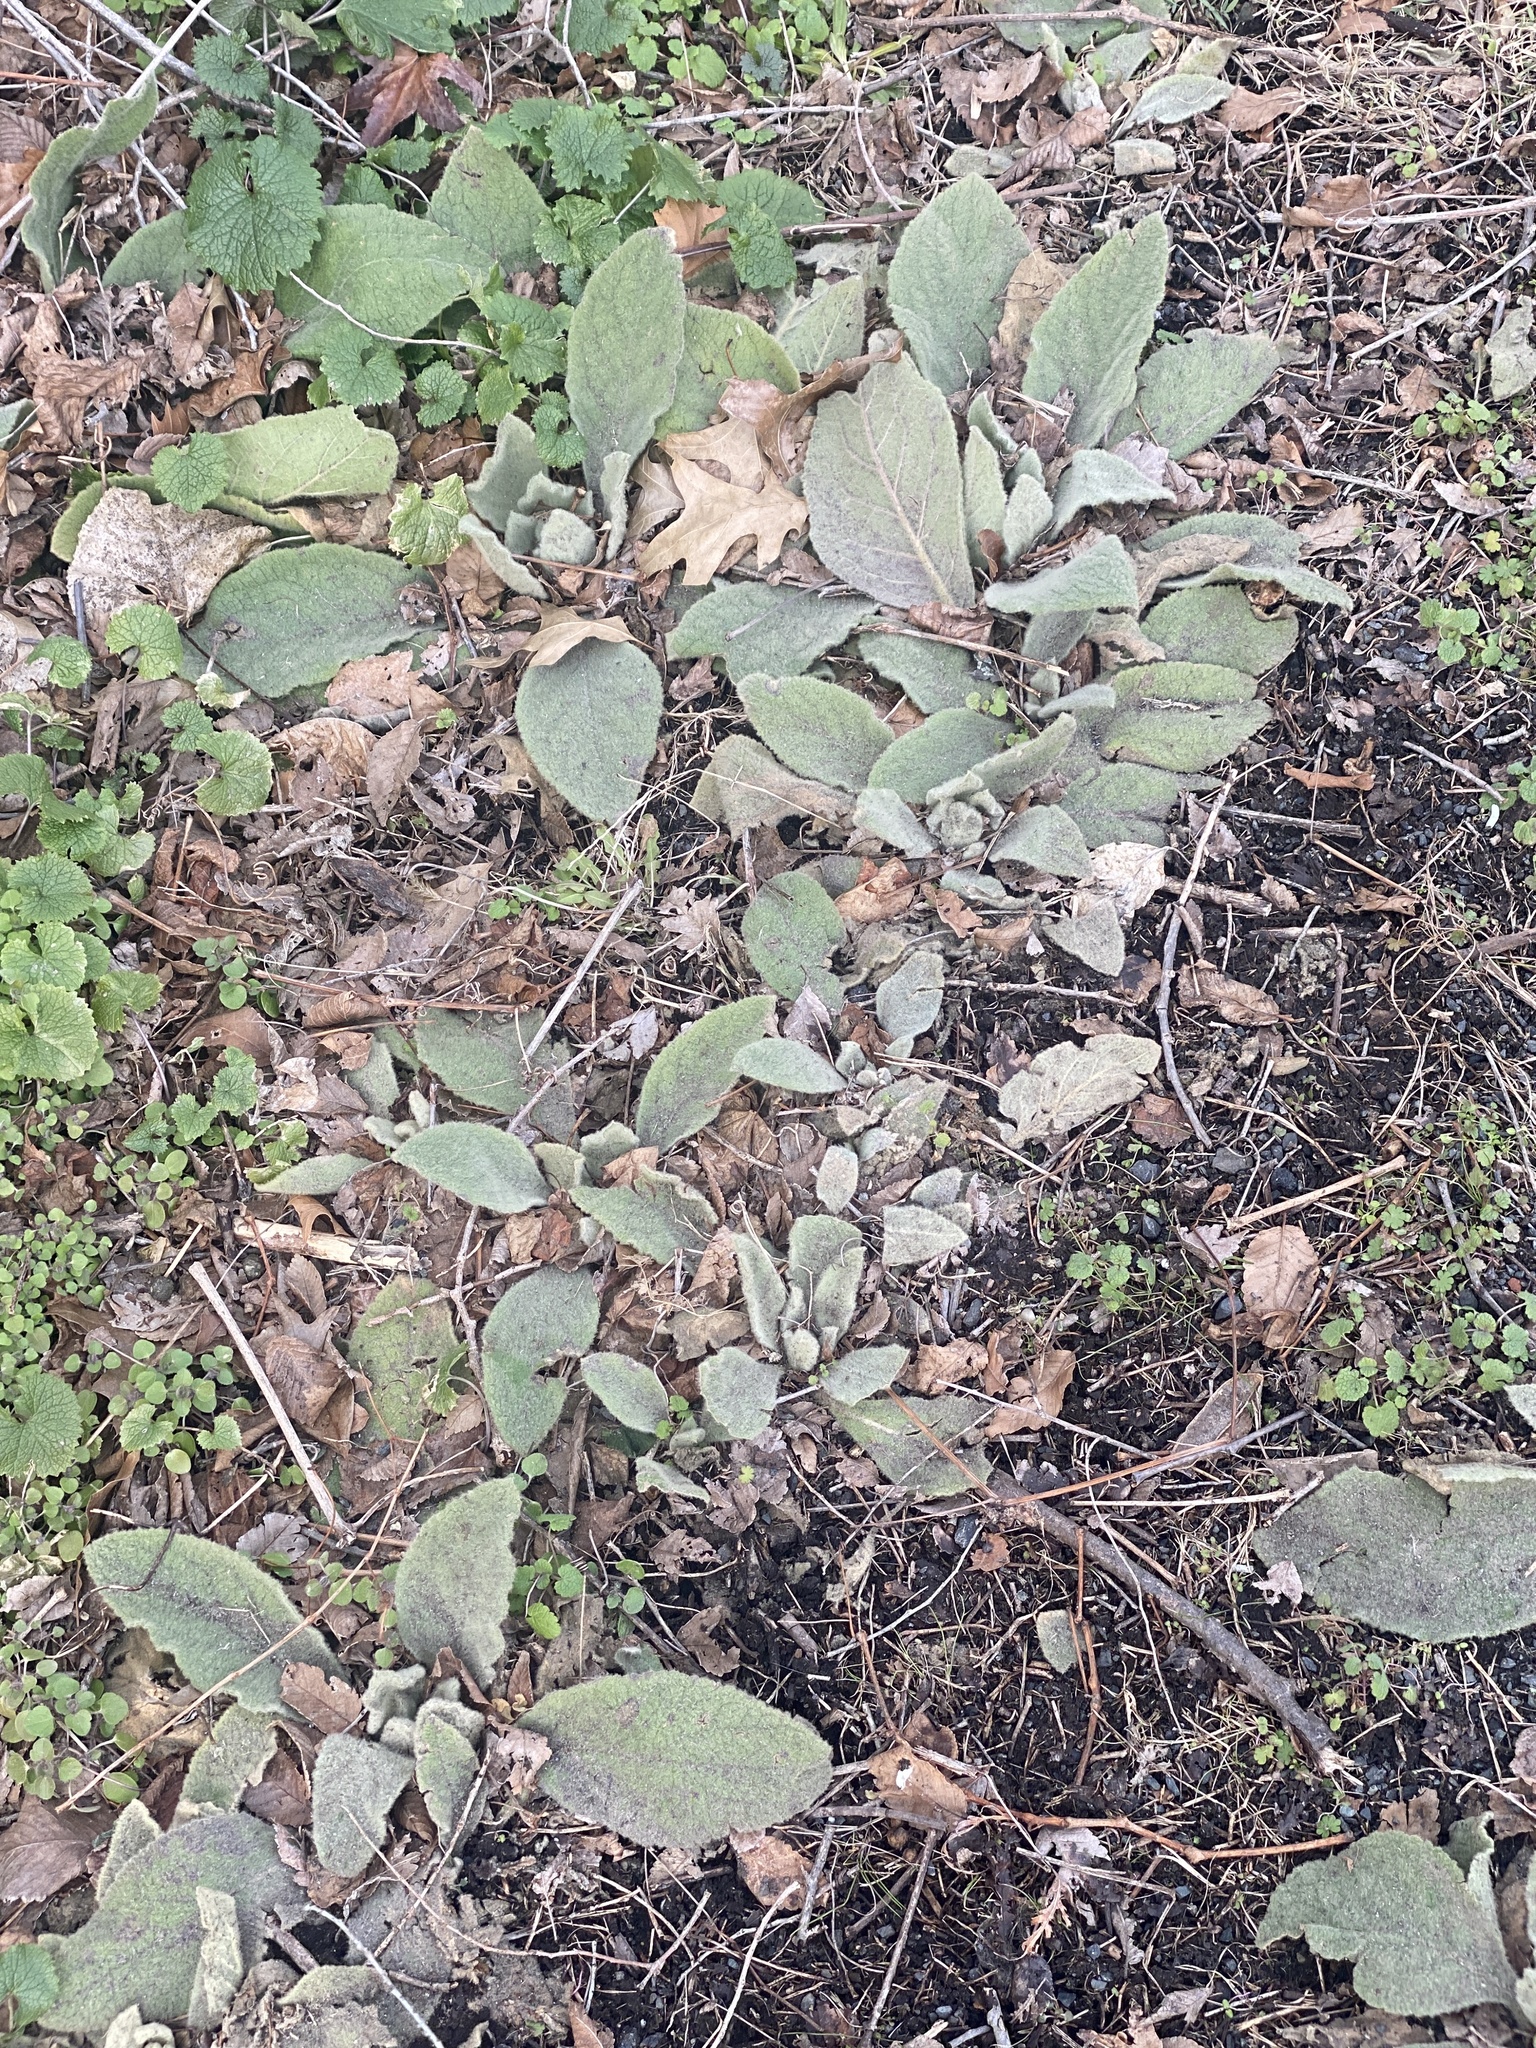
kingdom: Plantae
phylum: Tracheophyta
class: Magnoliopsida
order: Lamiales
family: Scrophulariaceae
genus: Verbascum
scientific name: Verbascum thapsus
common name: Common mullein
